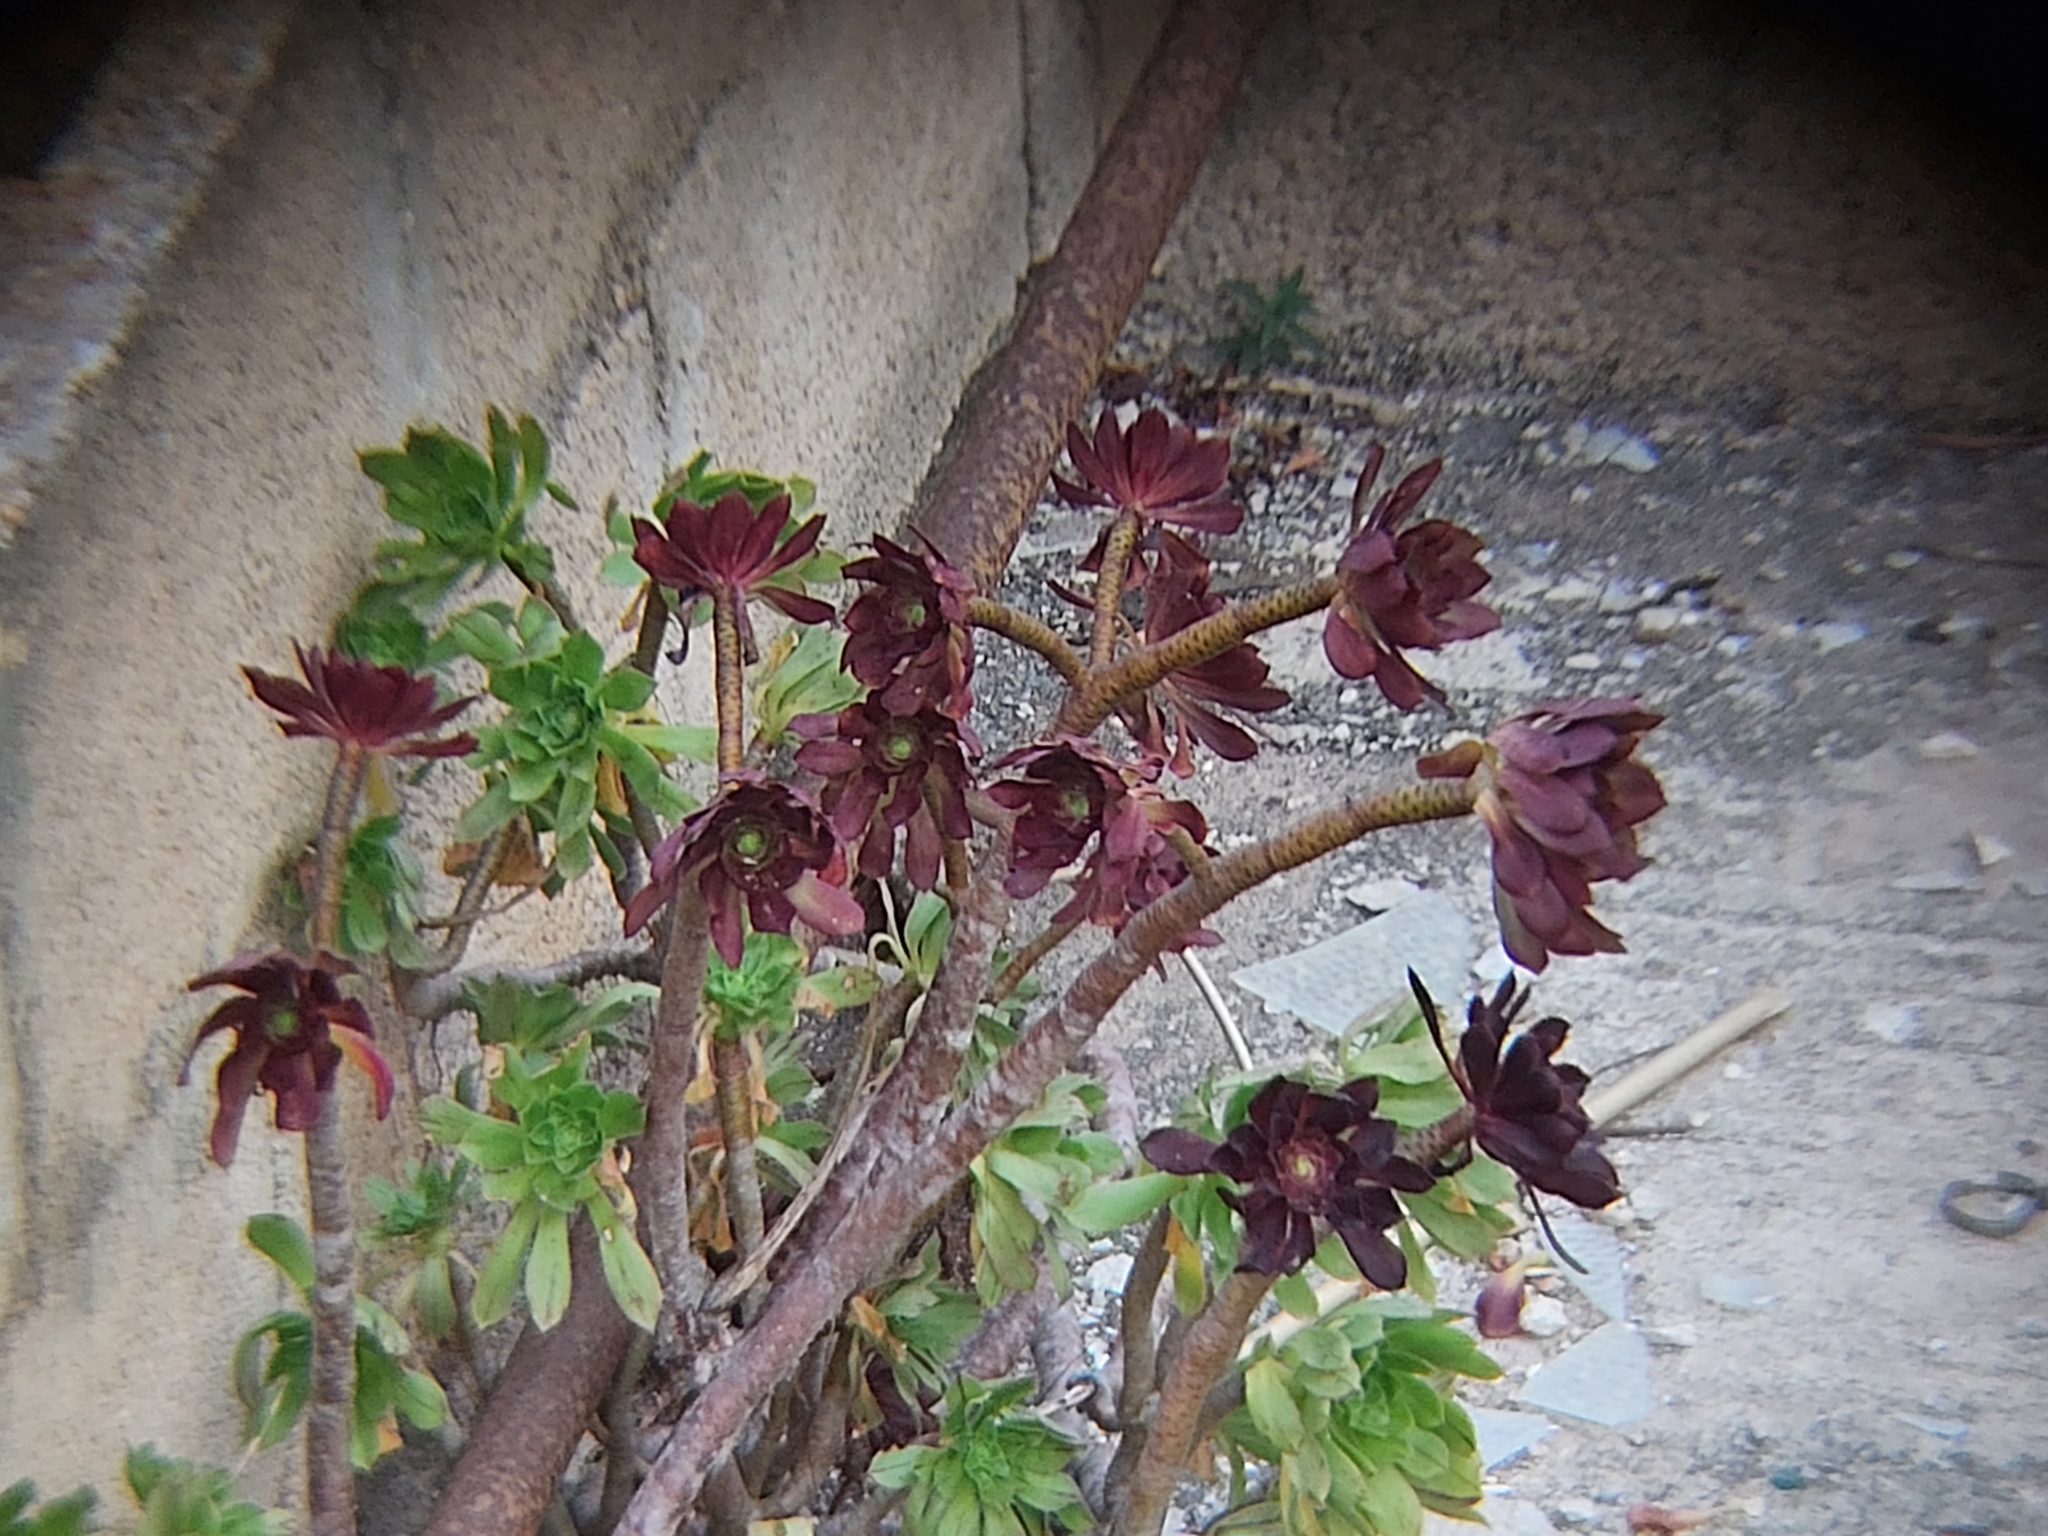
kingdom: Plantae
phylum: Tracheophyta
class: Magnoliopsida
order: Saxifragales
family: Crassulaceae
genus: Aeonium
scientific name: Aeonium arboreum
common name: Tree aeonium
